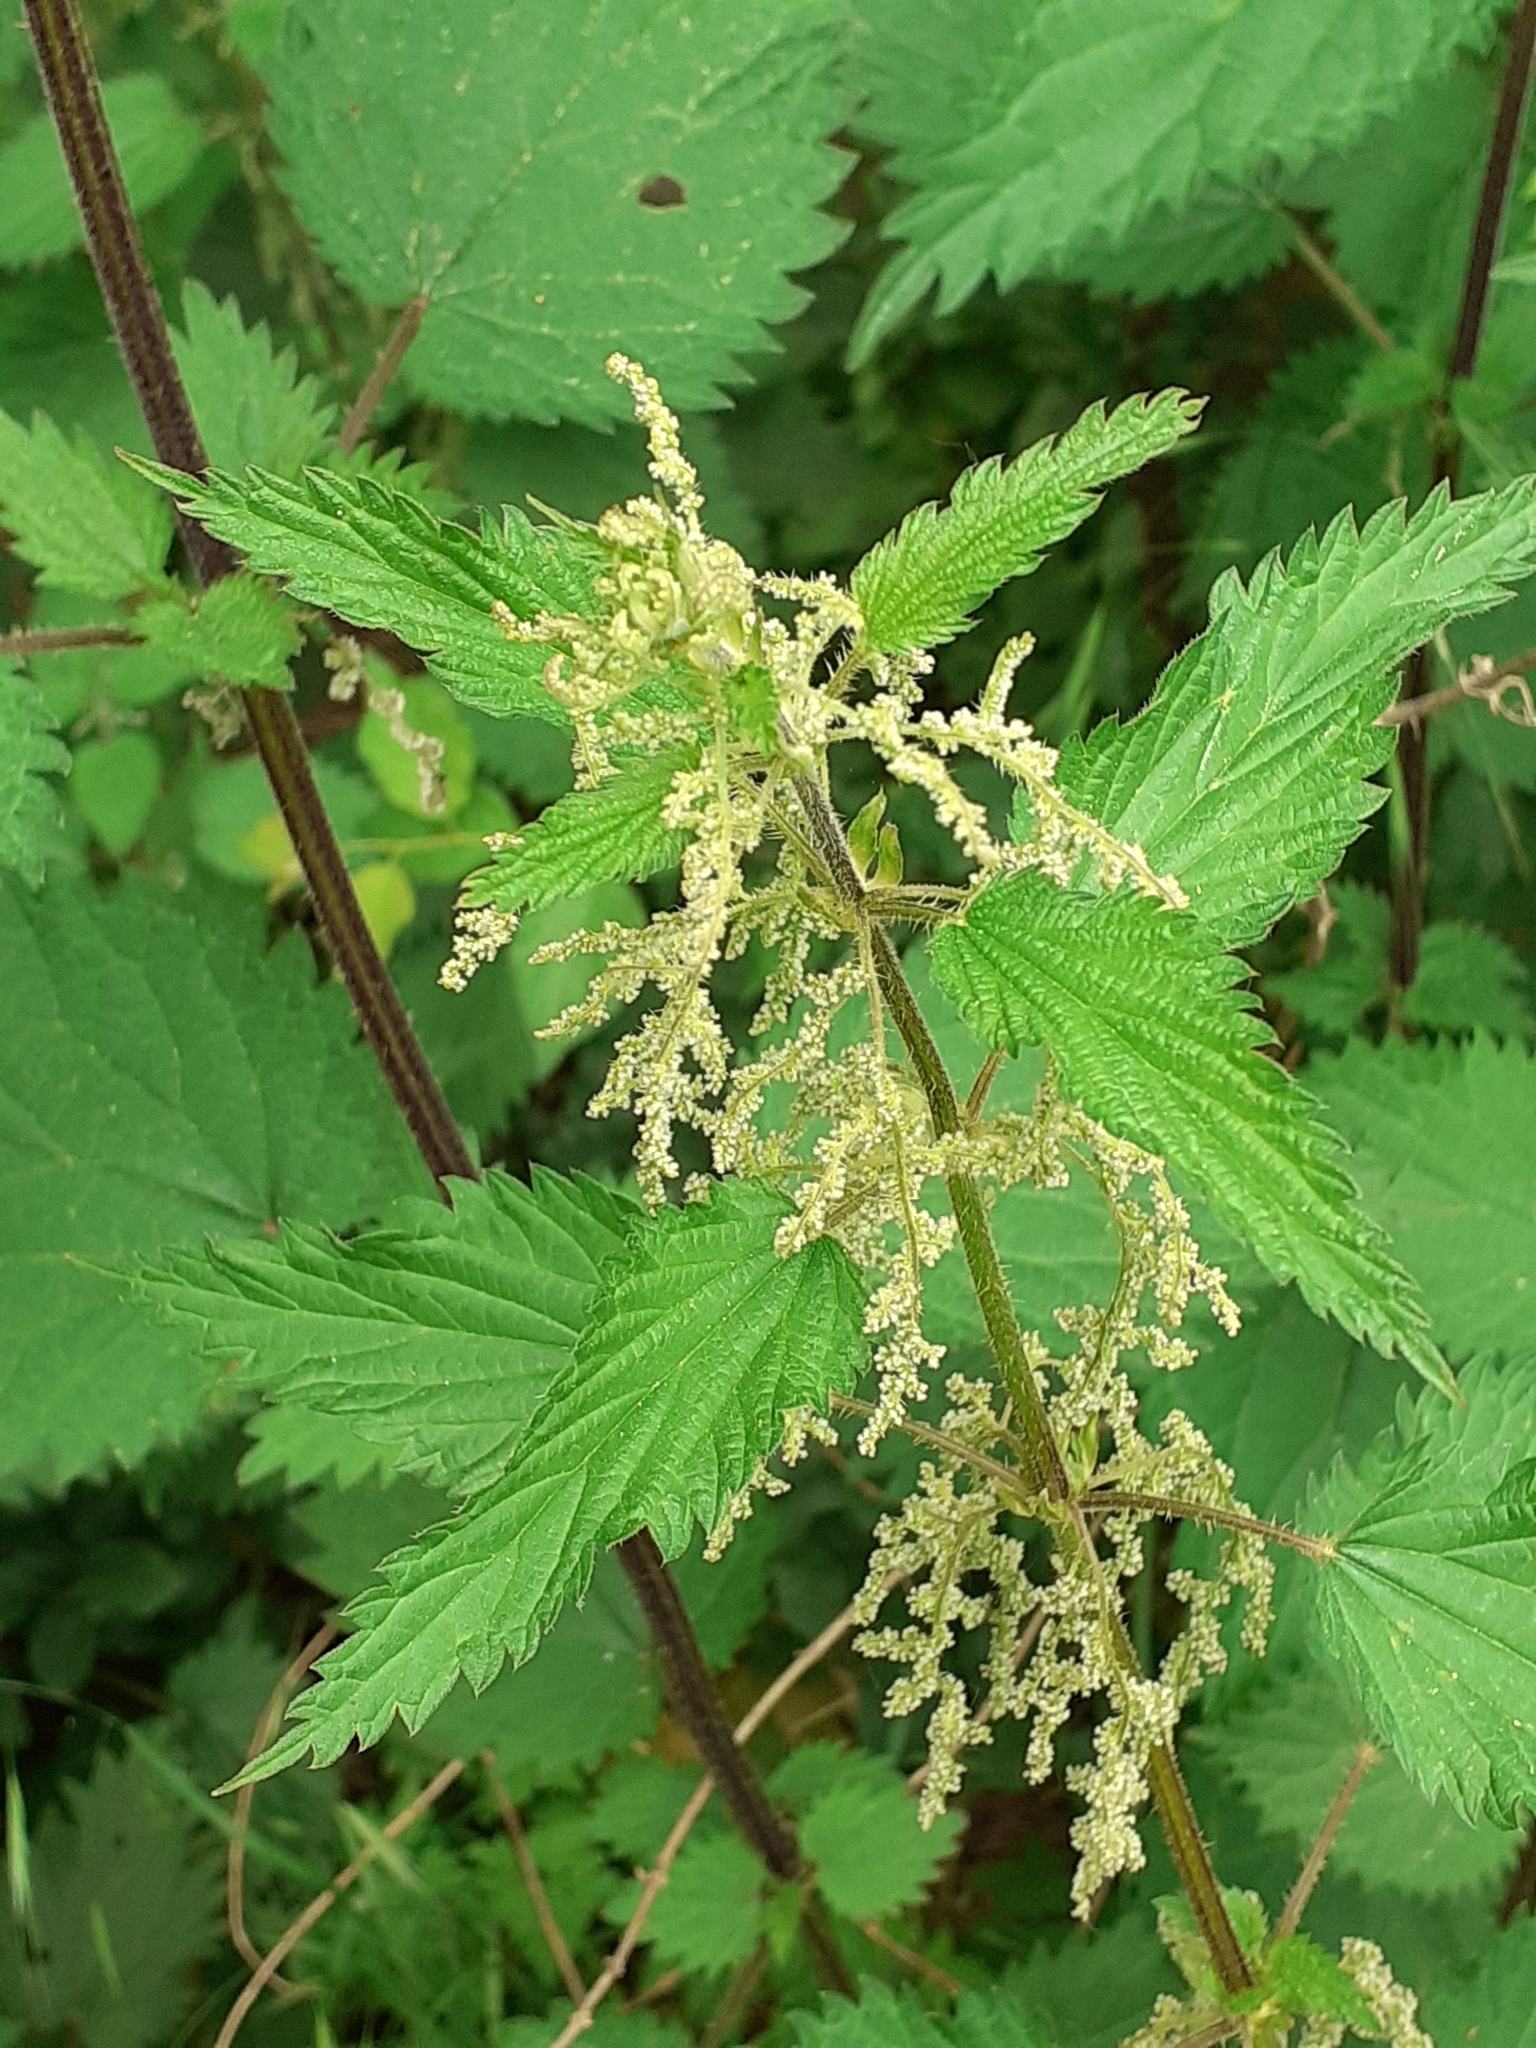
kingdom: Plantae
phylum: Tracheophyta
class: Magnoliopsida
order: Rosales
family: Urticaceae
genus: Urtica
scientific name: Urtica dioica
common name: Common nettle
